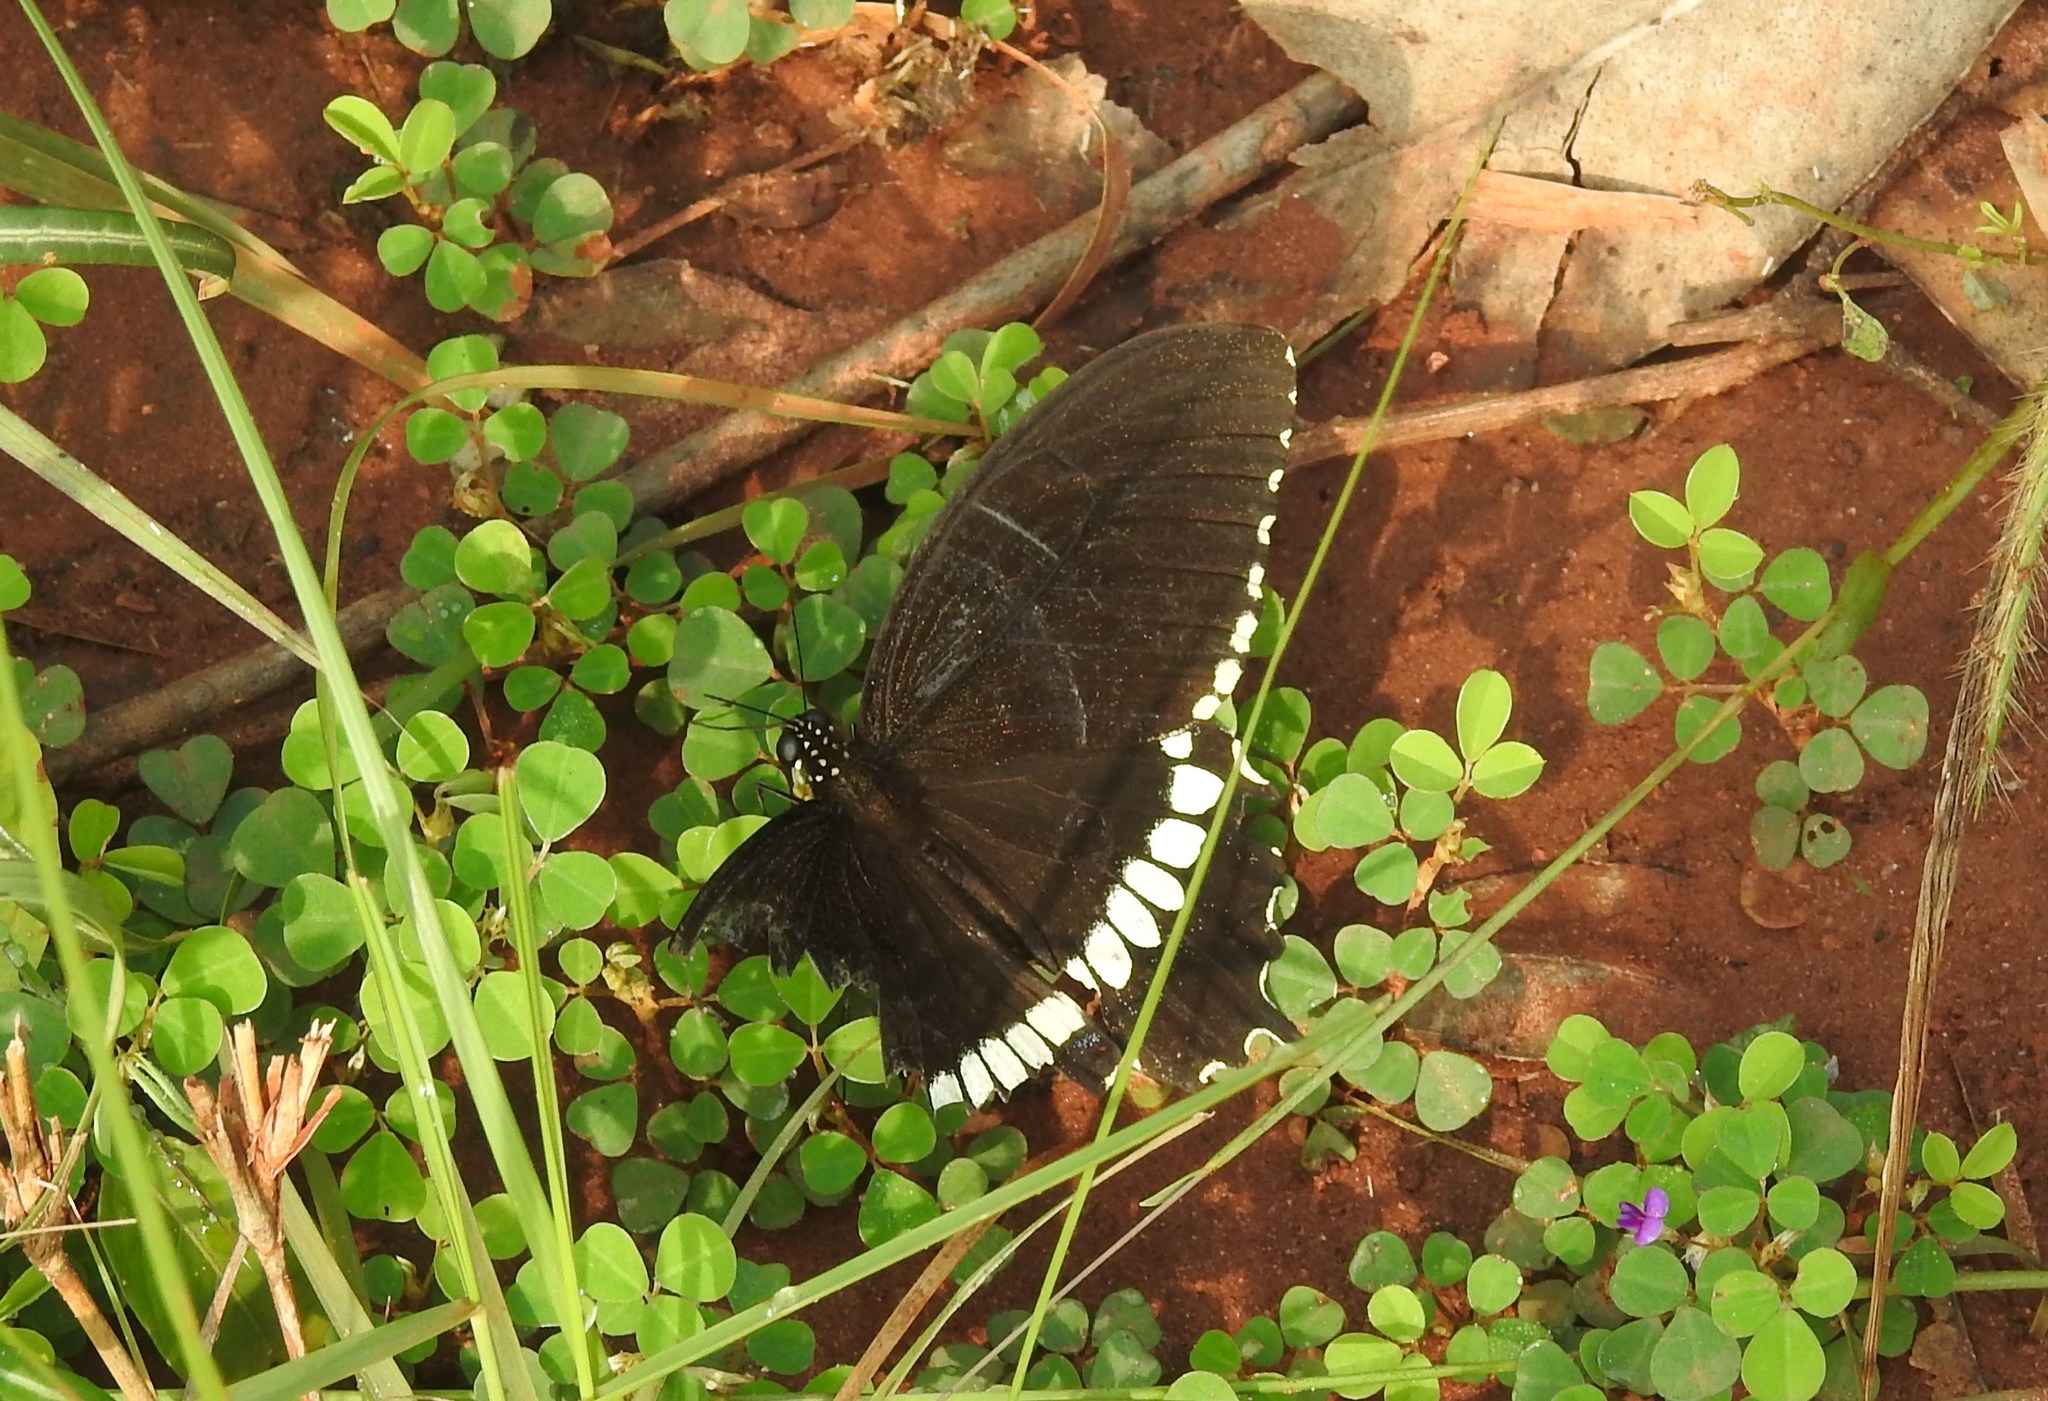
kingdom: Animalia
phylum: Arthropoda
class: Insecta
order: Lepidoptera
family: Papilionidae
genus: Papilio
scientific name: Papilio polytes
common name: Common mormon
